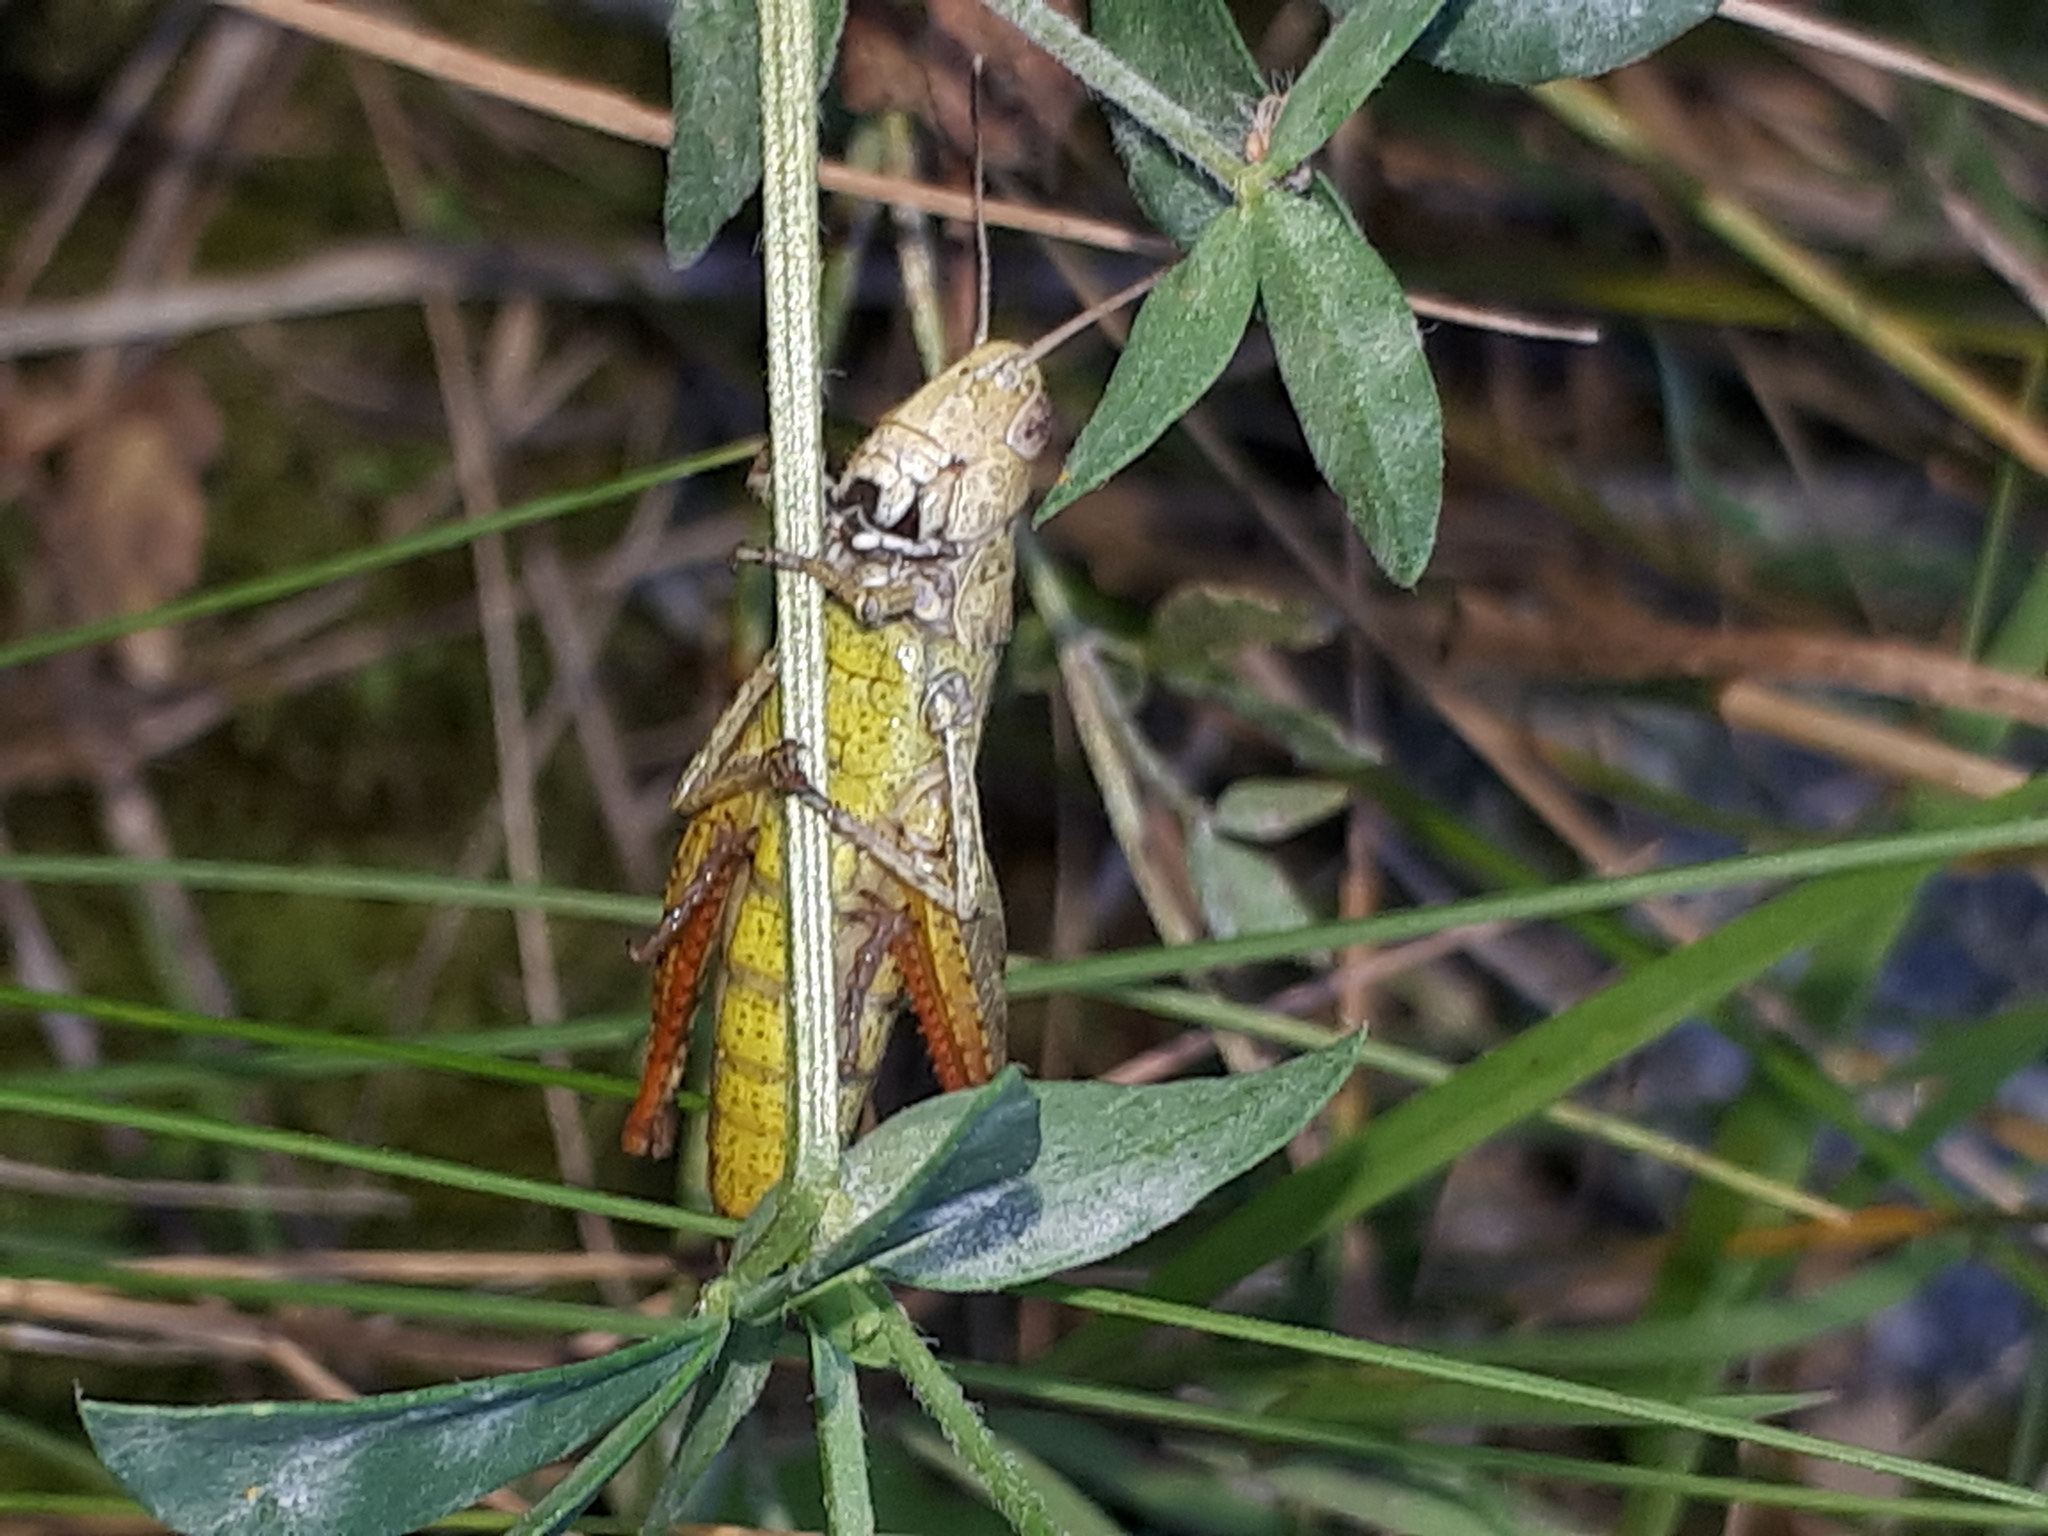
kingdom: Animalia
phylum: Arthropoda
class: Insecta
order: Orthoptera
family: Acrididae
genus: Gomphocerippus
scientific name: Gomphocerippus rufus
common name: Rufous grasshopper
